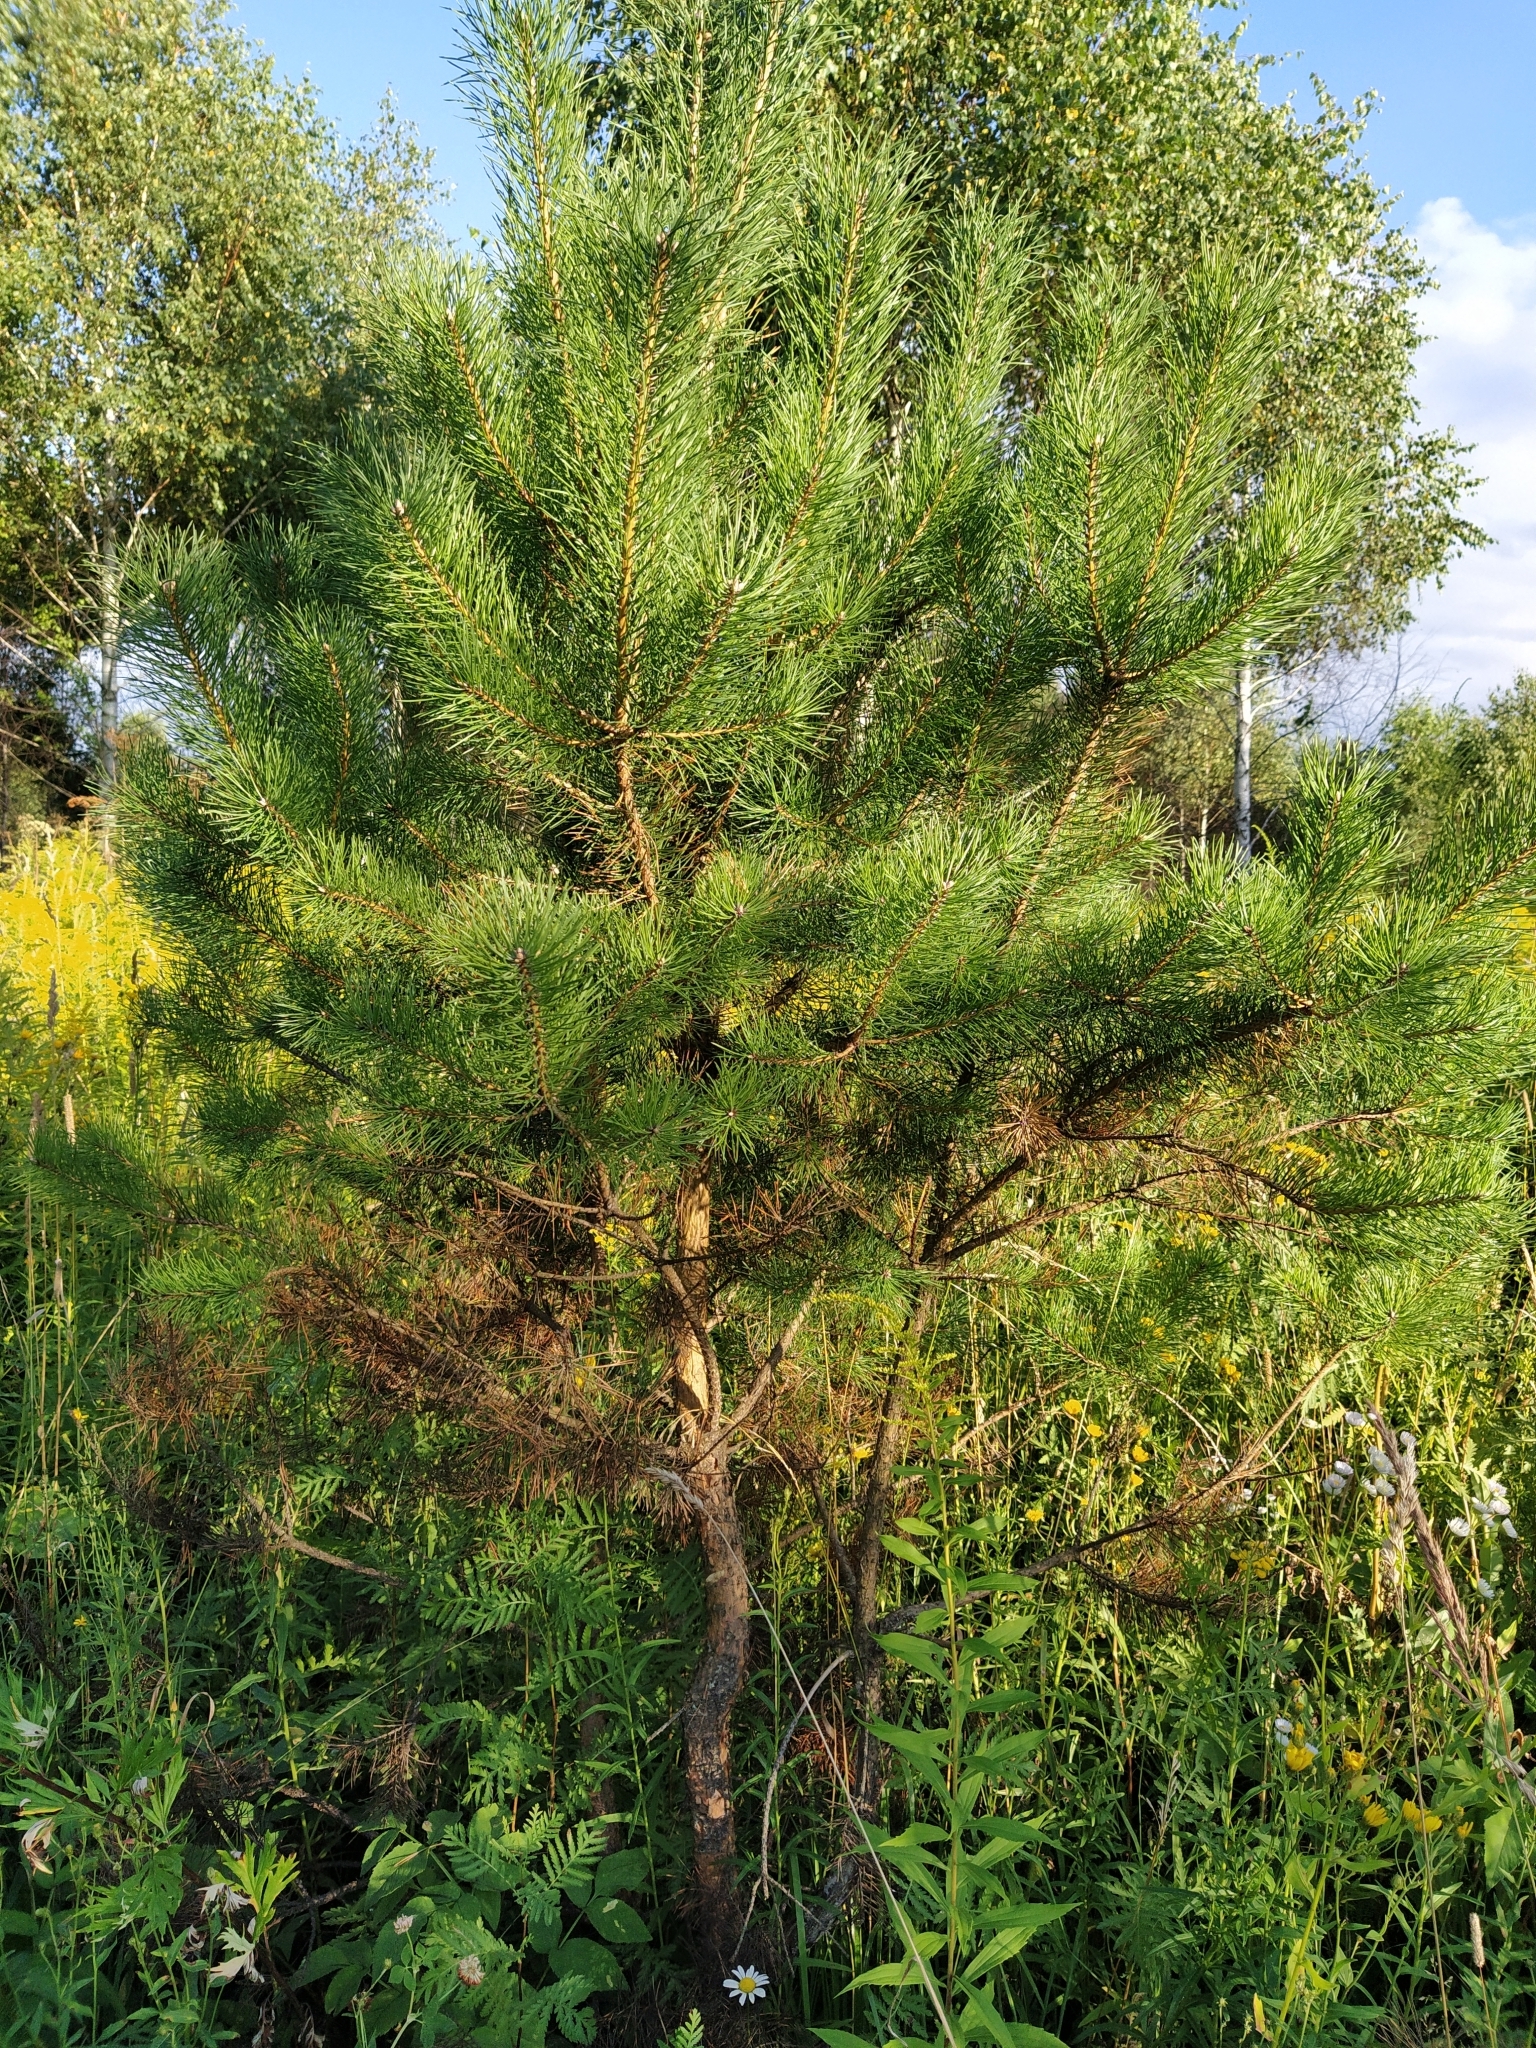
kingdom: Plantae
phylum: Tracheophyta
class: Pinopsida
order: Pinales
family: Pinaceae
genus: Pinus
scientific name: Pinus sylvestris
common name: Scots pine
